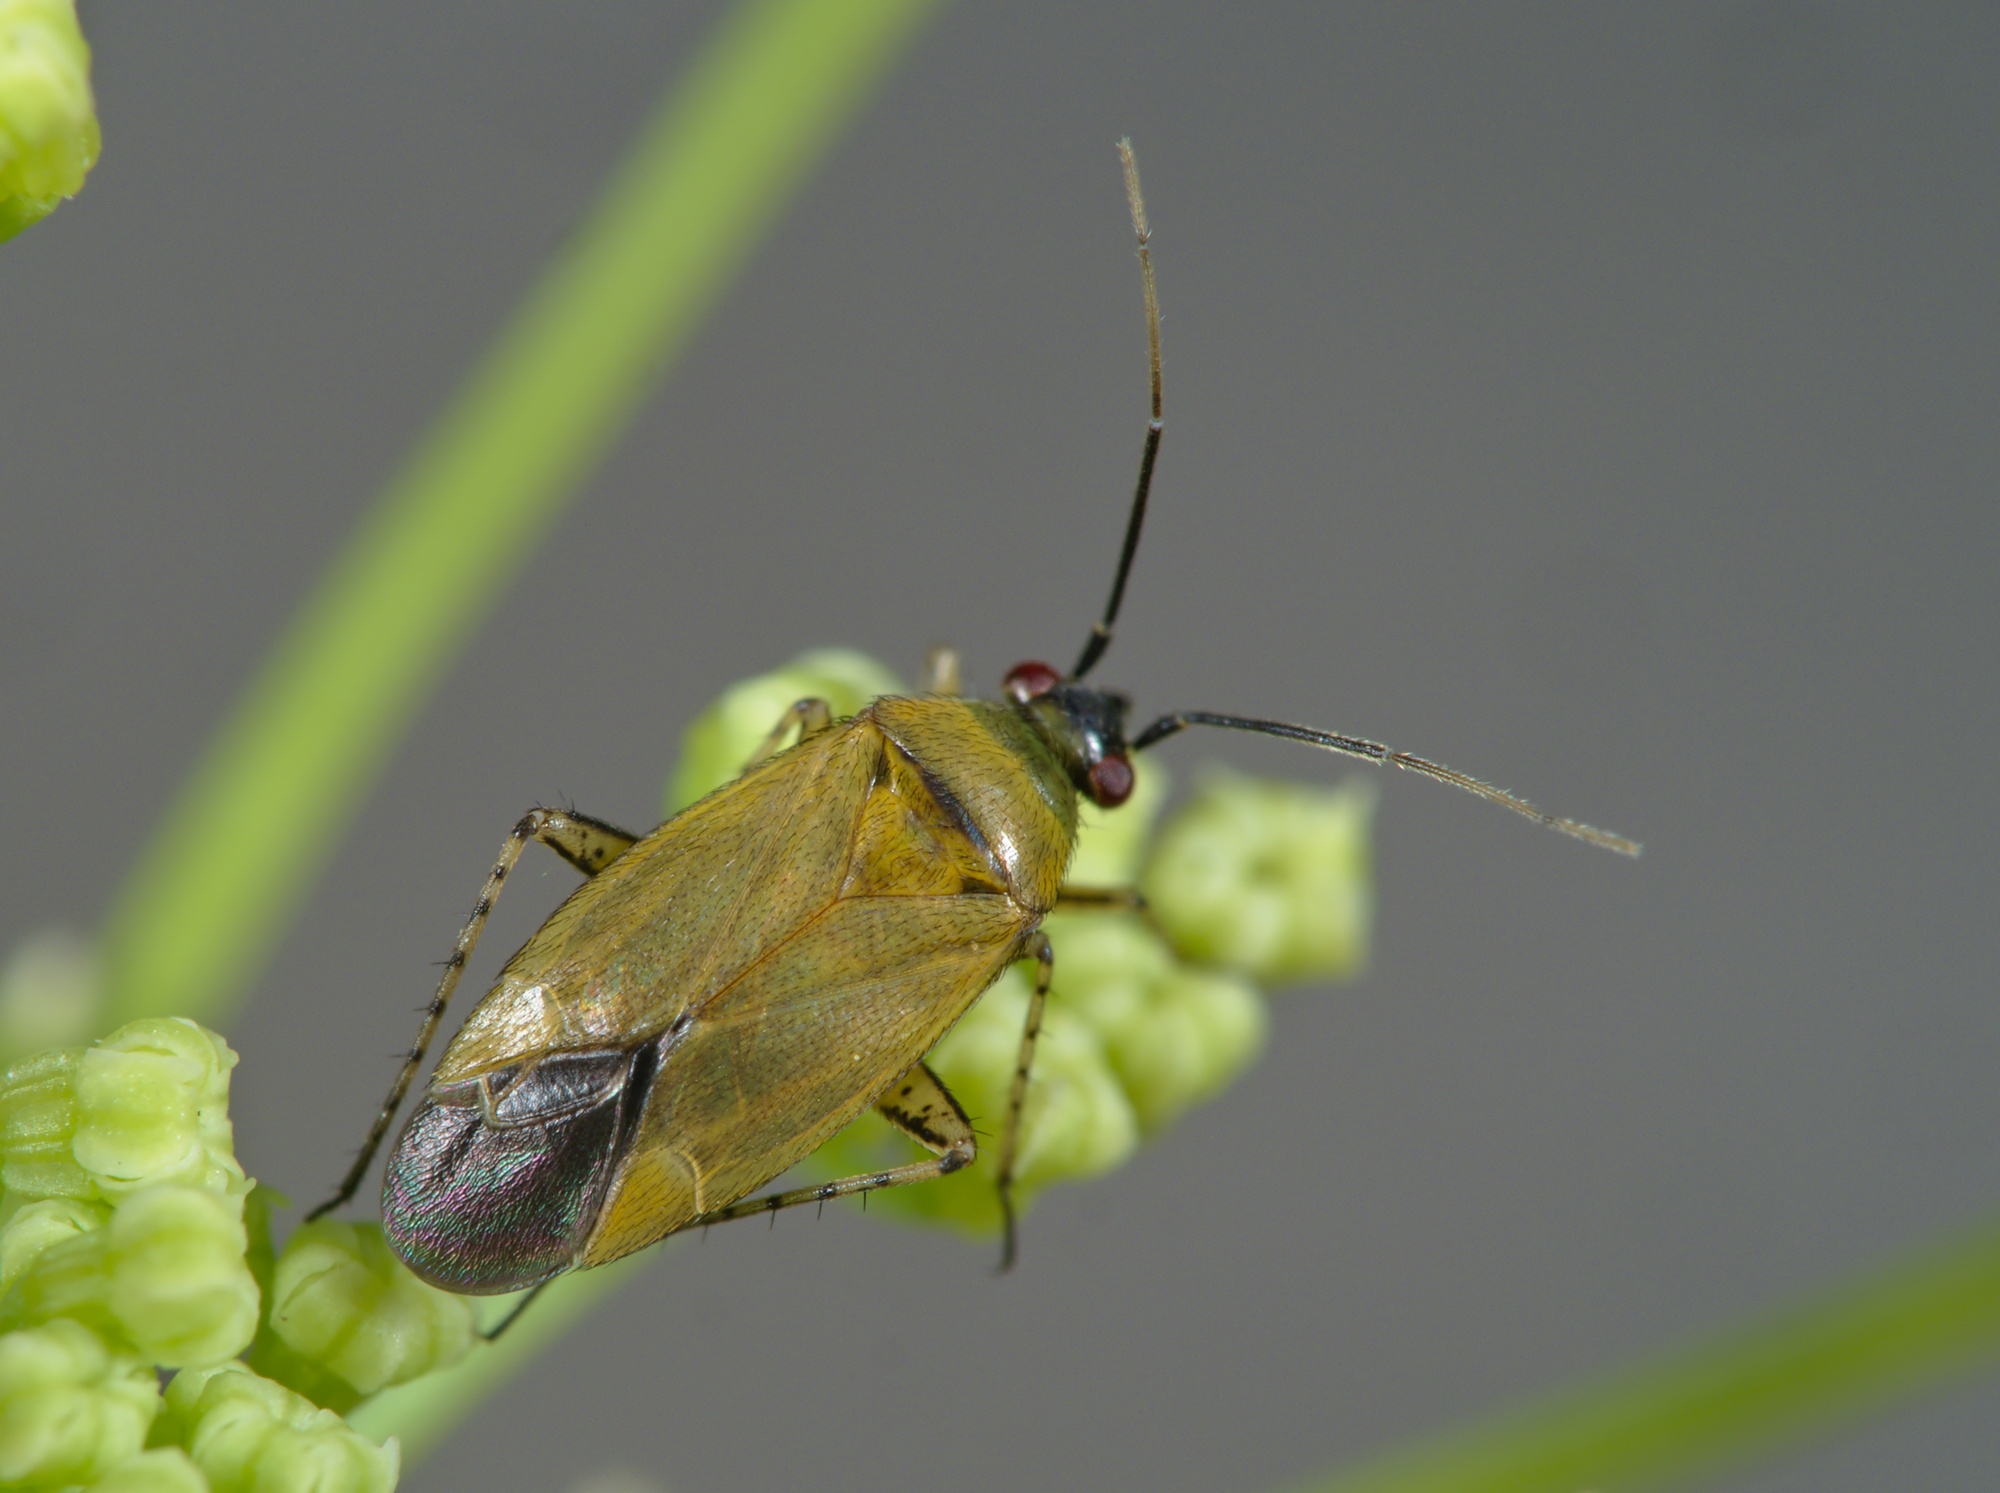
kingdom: Animalia
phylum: Arthropoda
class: Insecta
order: Hemiptera
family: Miridae
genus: Plagiognathus
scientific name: Plagiognathus arbustorum
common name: Plant bug
